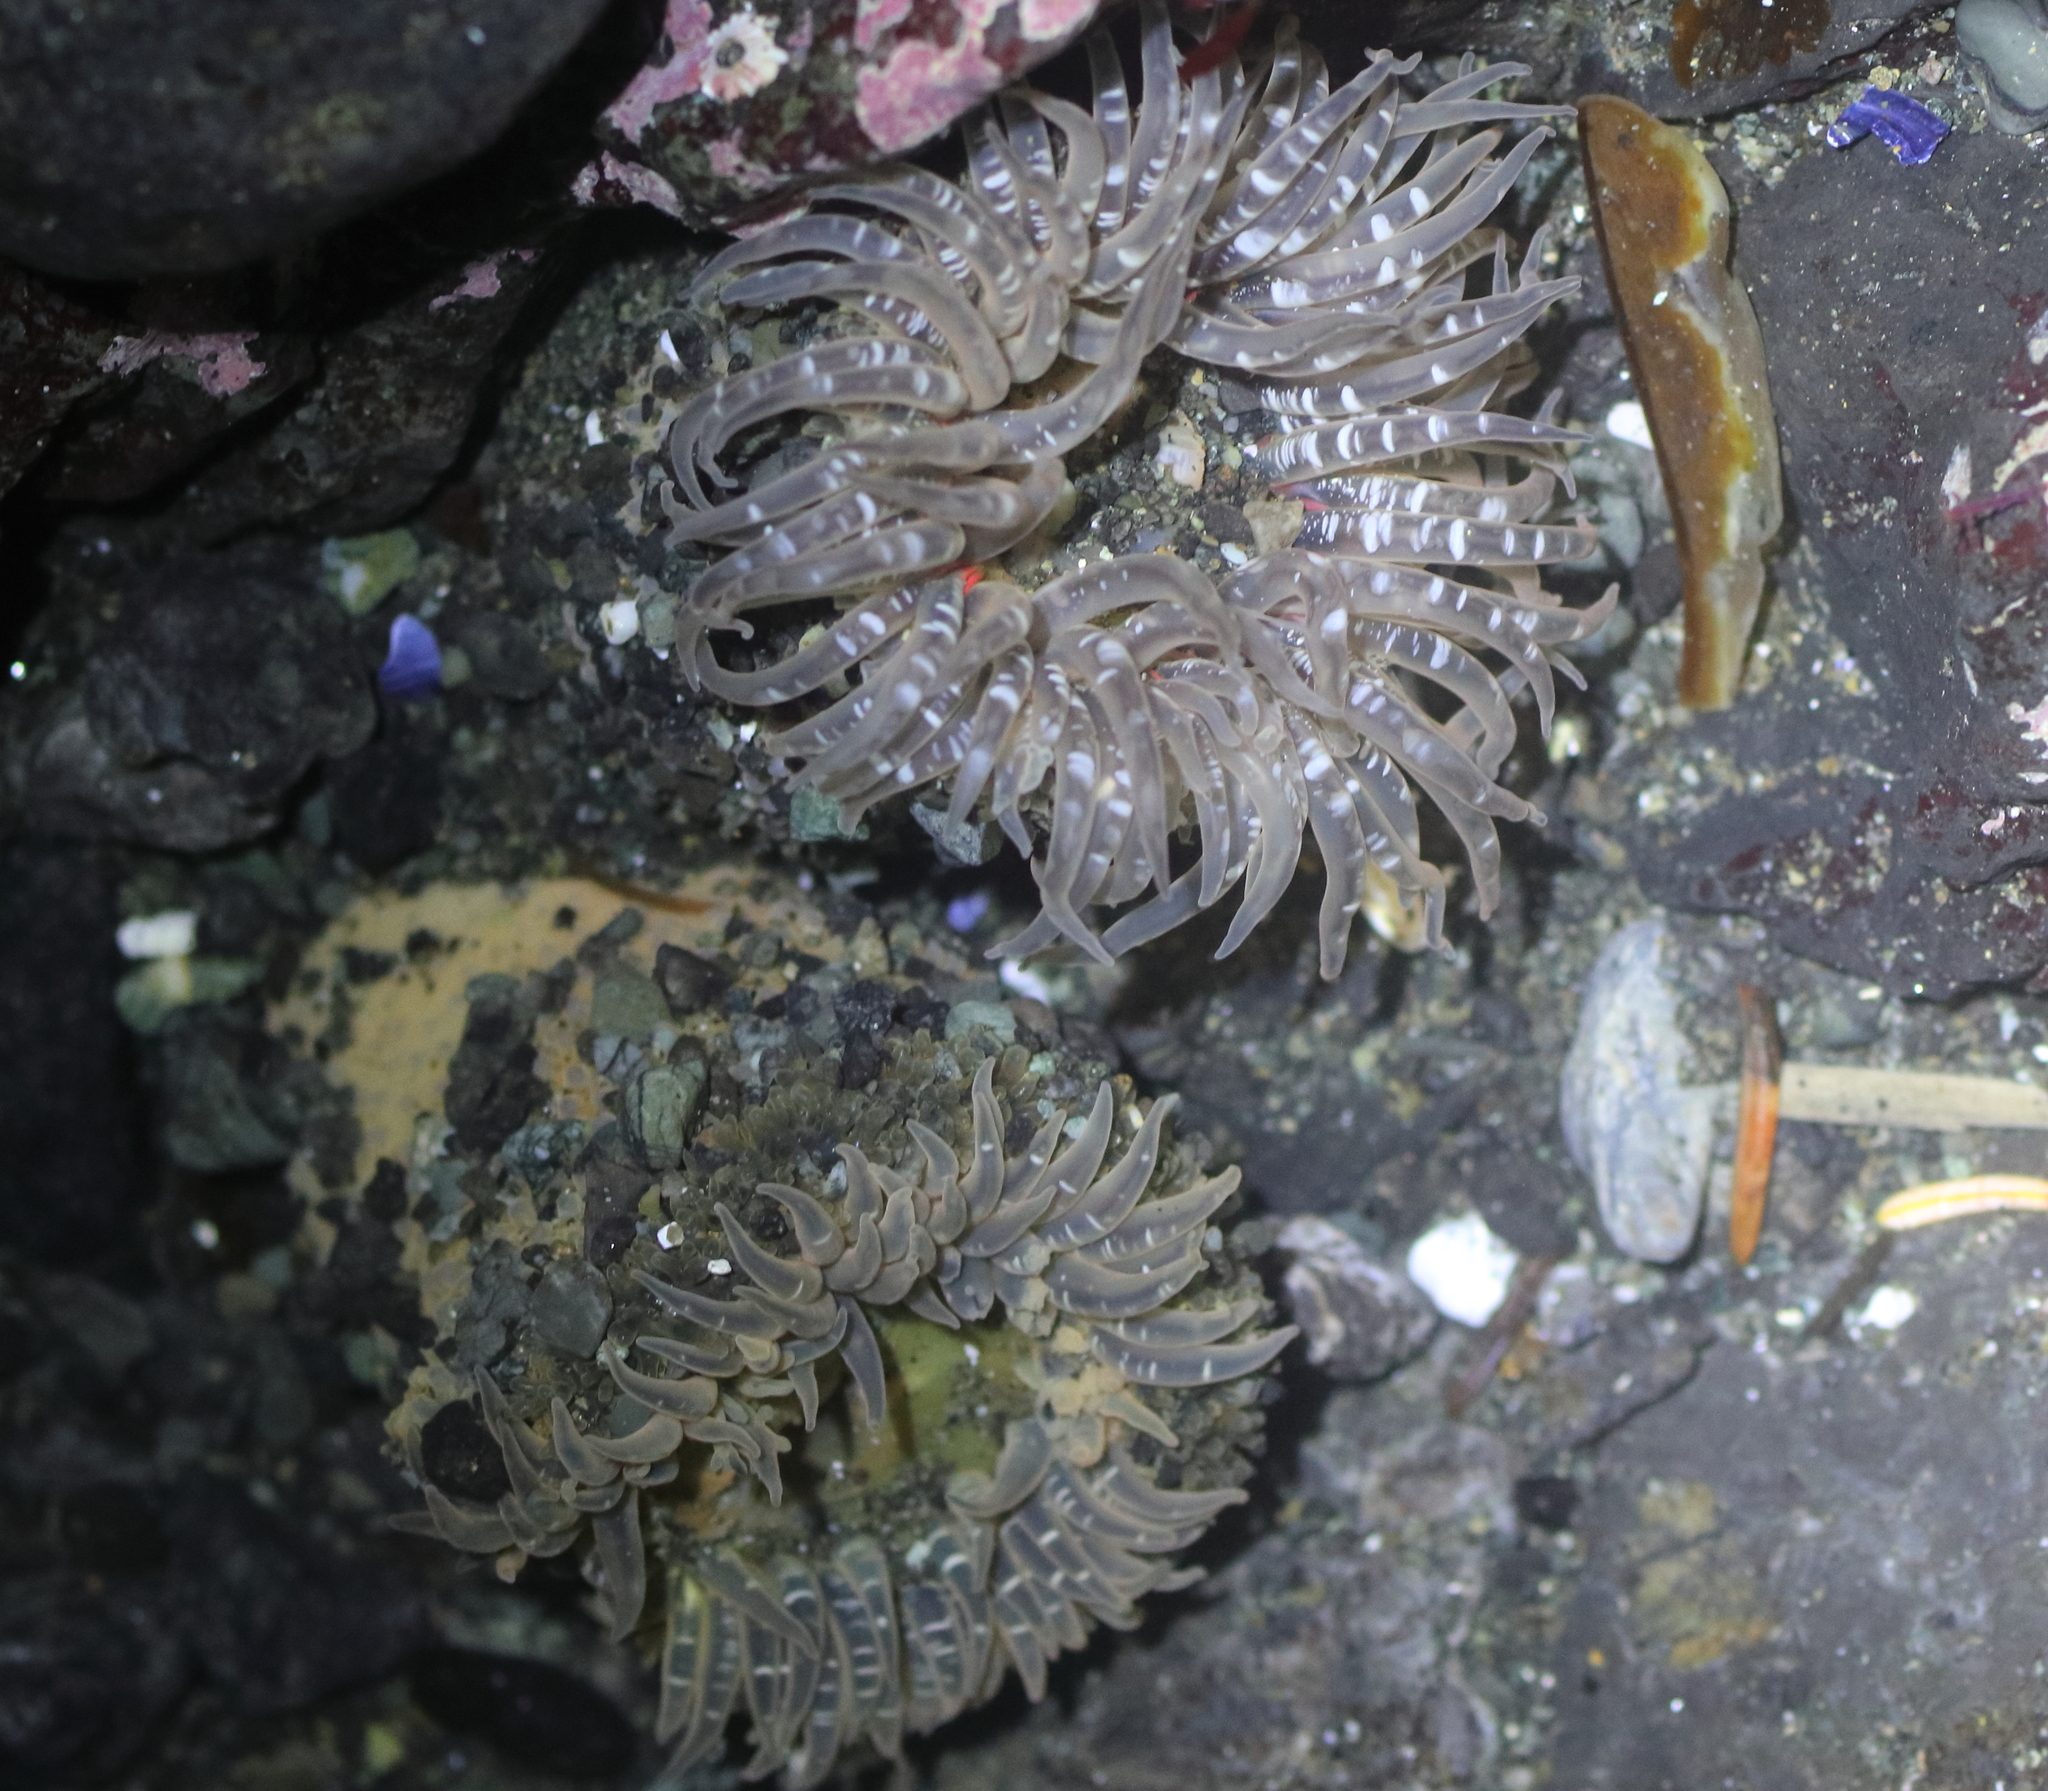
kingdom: Animalia
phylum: Cnidaria
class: Anthozoa
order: Actiniaria
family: Actiniidae
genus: Anthopleura
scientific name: Anthopleura artemisia
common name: Buried sea anemone
